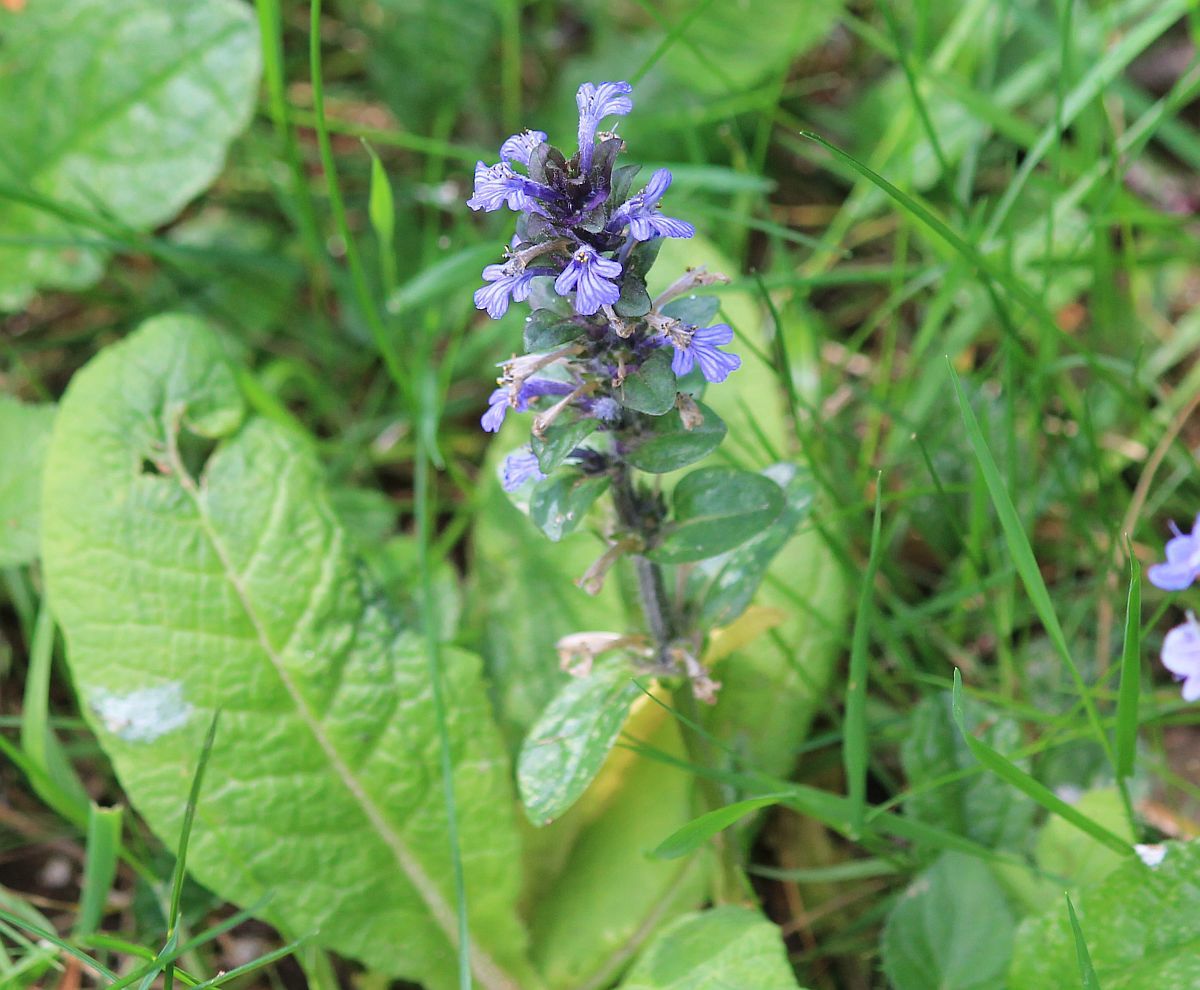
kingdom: Plantae
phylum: Tracheophyta
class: Magnoliopsida
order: Lamiales
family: Lamiaceae
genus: Ajuga
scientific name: Ajuga reptans
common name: Bugle
